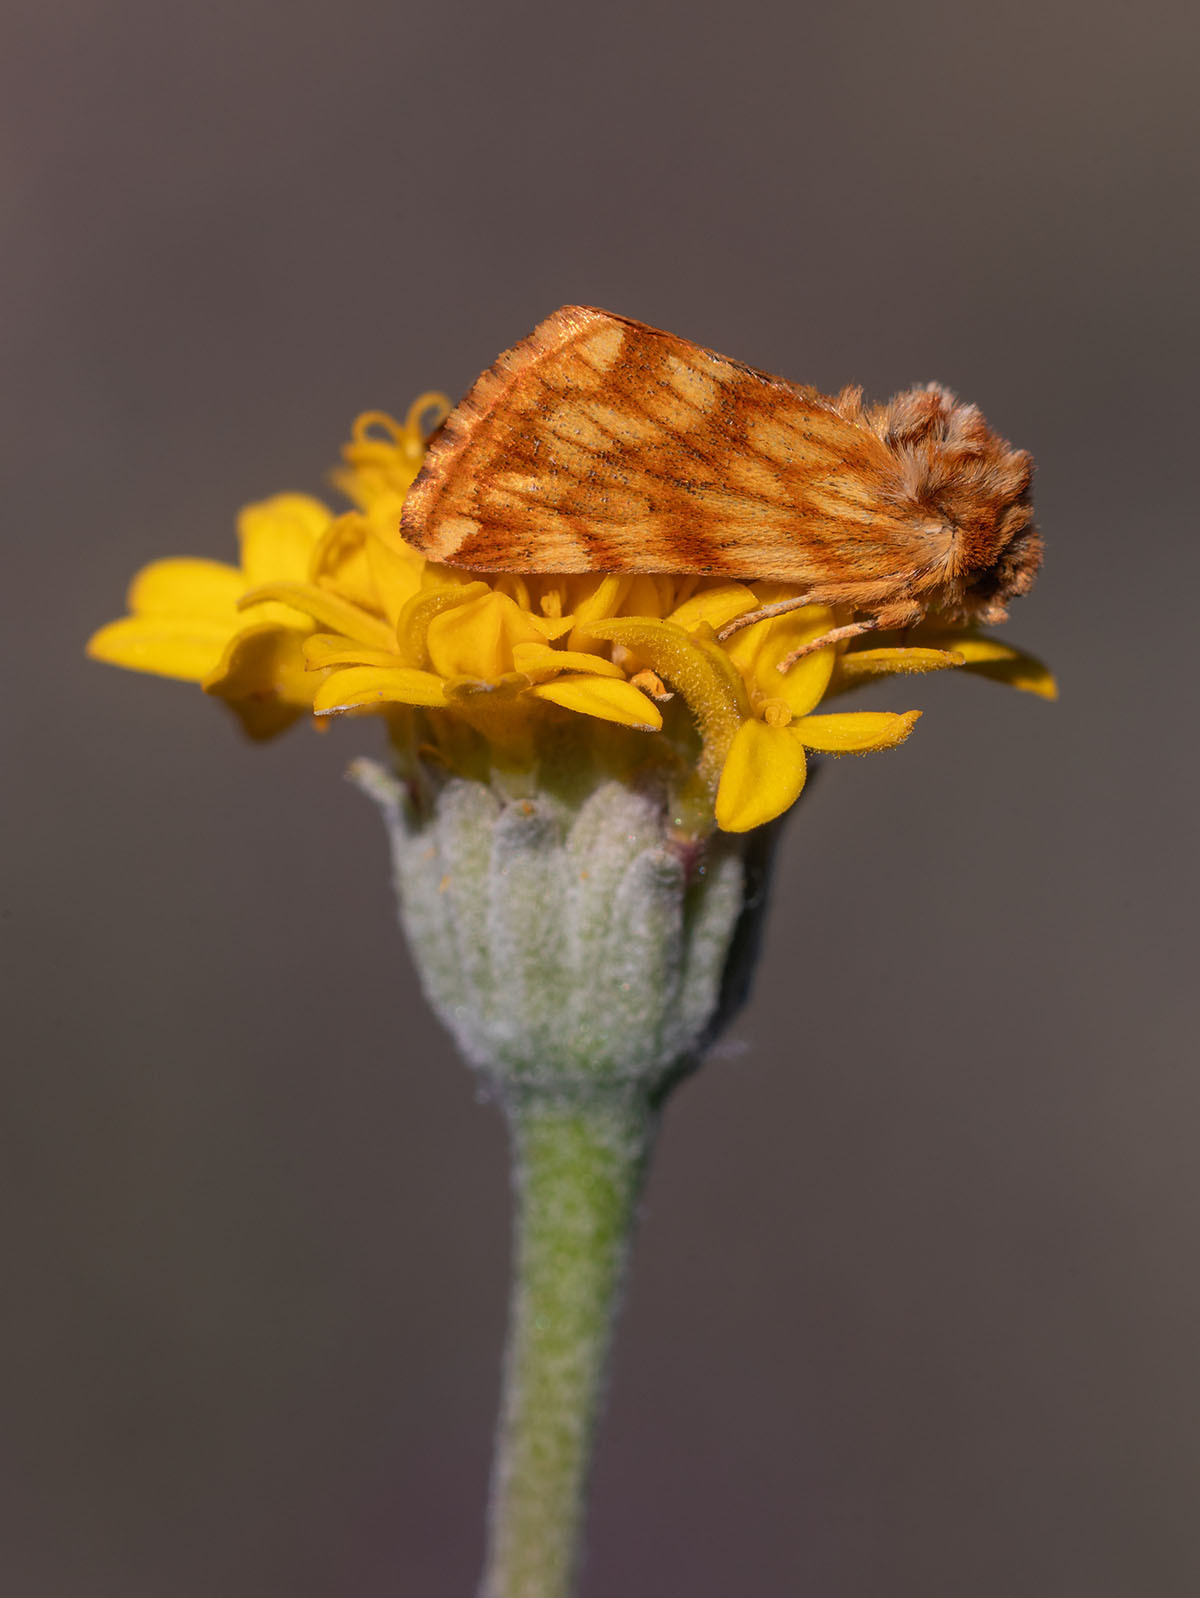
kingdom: Animalia
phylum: Arthropoda
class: Insecta
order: Lepidoptera
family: Noctuidae
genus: Xanthothrix
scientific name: Xanthothrix neumoegeni
